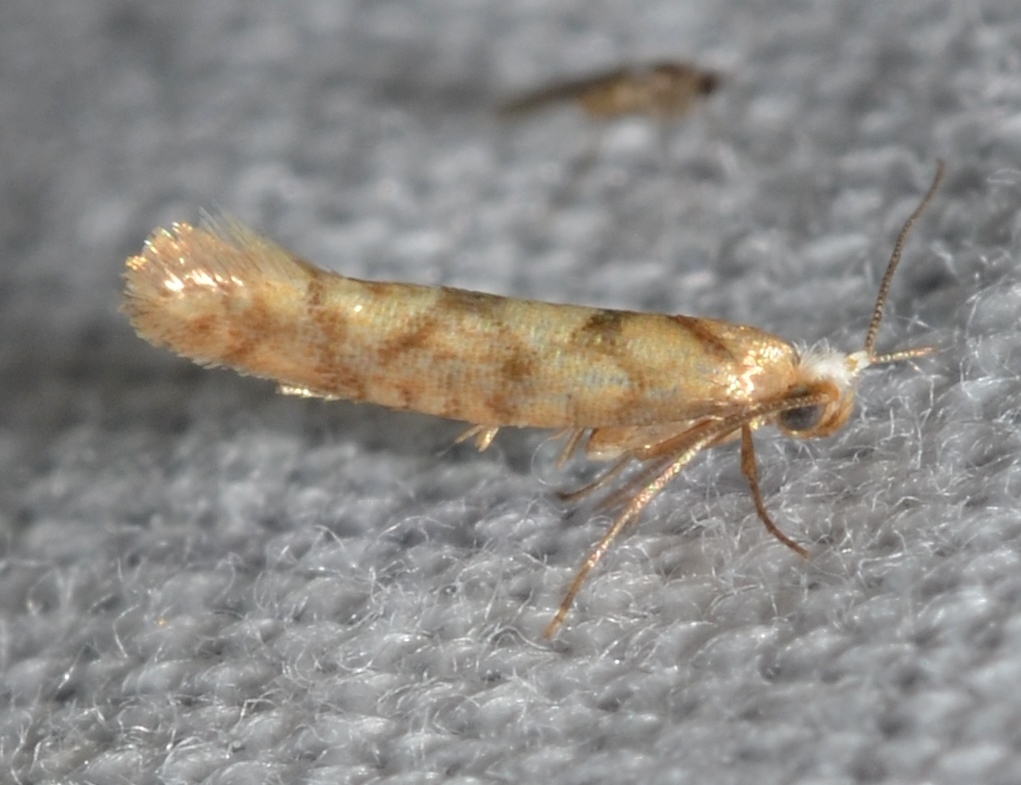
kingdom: Animalia
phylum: Arthropoda
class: Insecta
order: Lepidoptera
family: Argyresthiidae
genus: Argyresthia
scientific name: Argyresthia alternatella
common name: Juniper seed moth
